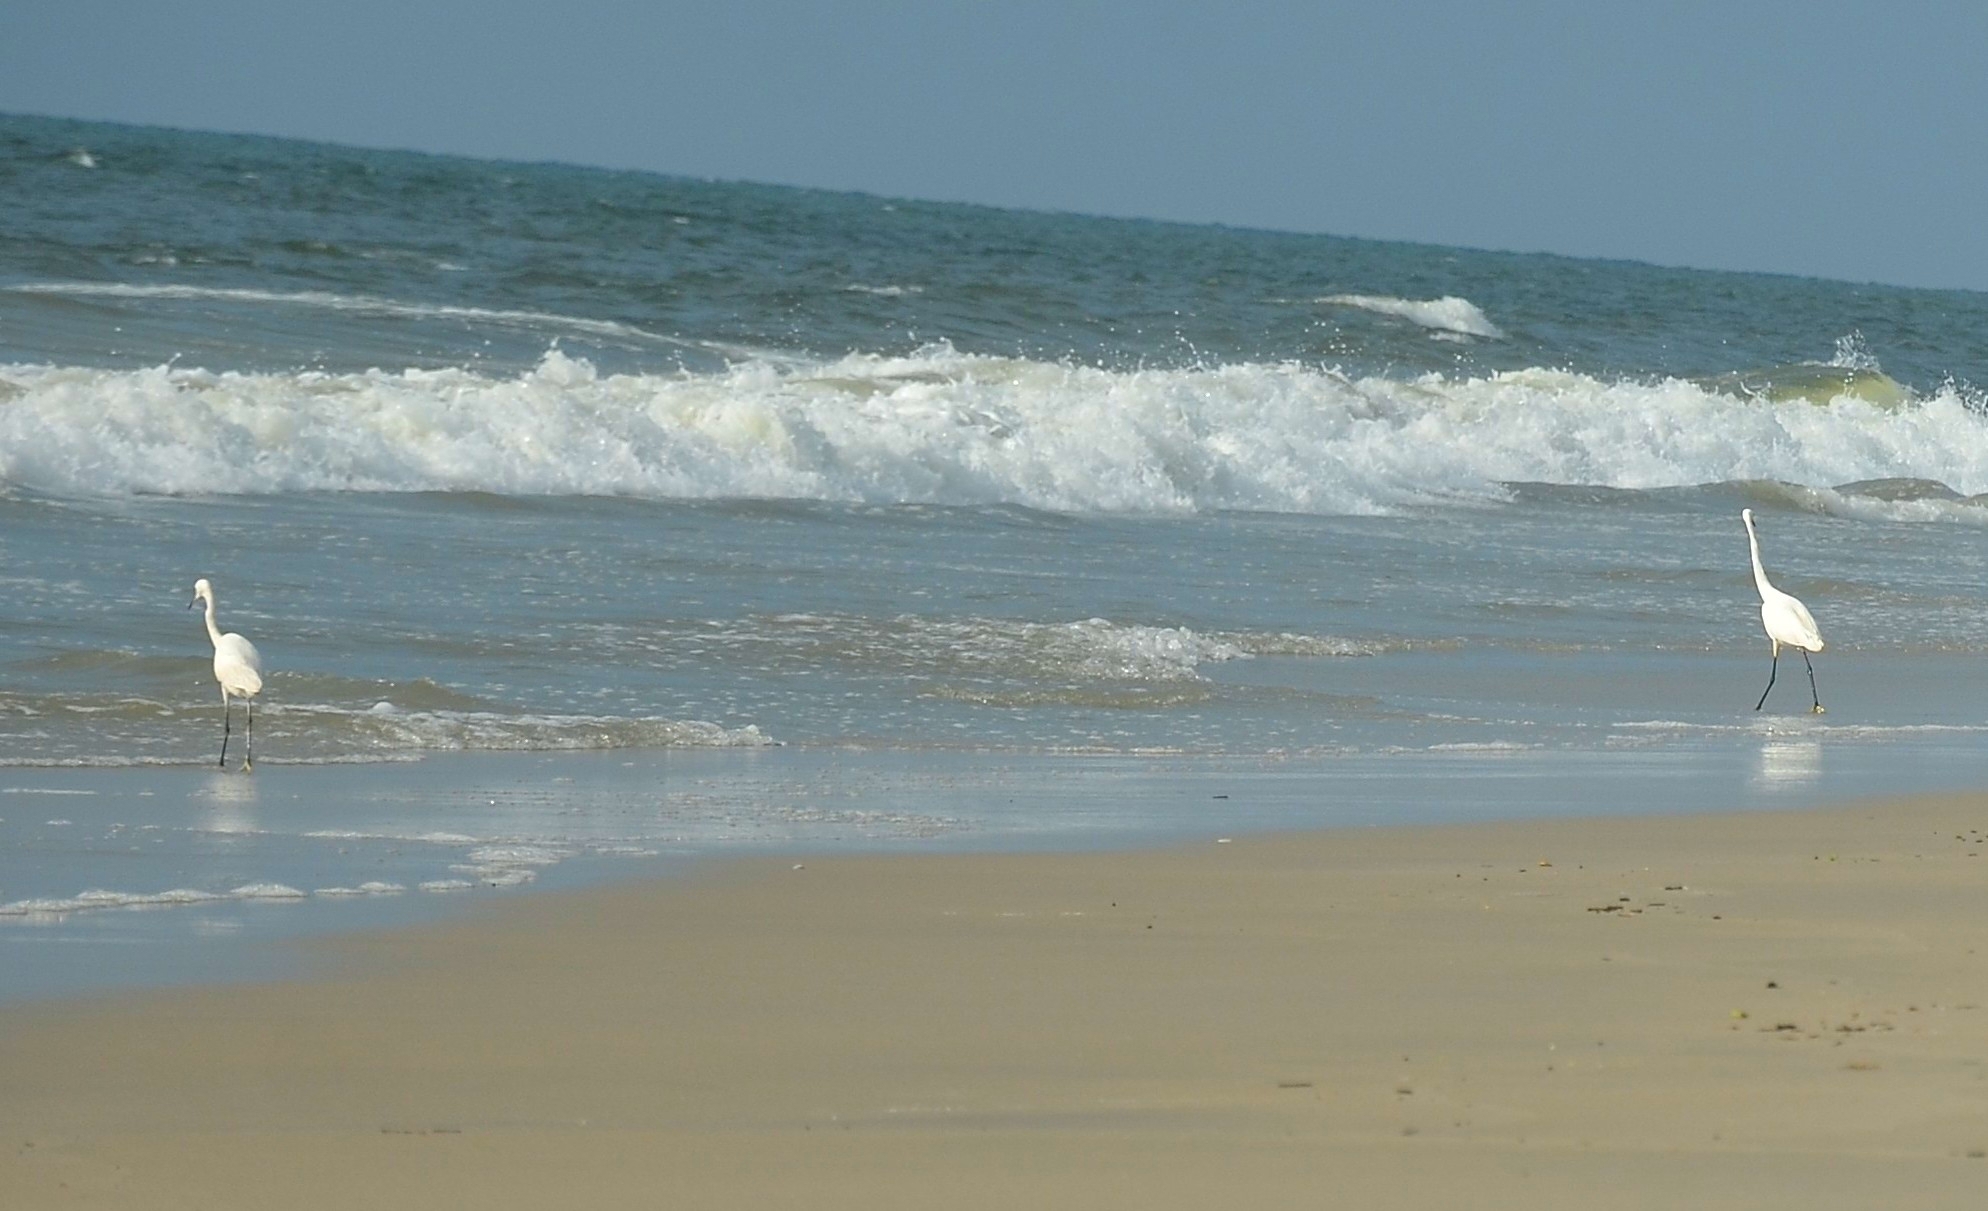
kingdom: Animalia
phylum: Chordata
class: Aves
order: Pelecaniformes
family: Ardeidae
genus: Egretta
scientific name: Egretta garzetta
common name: Little egret
